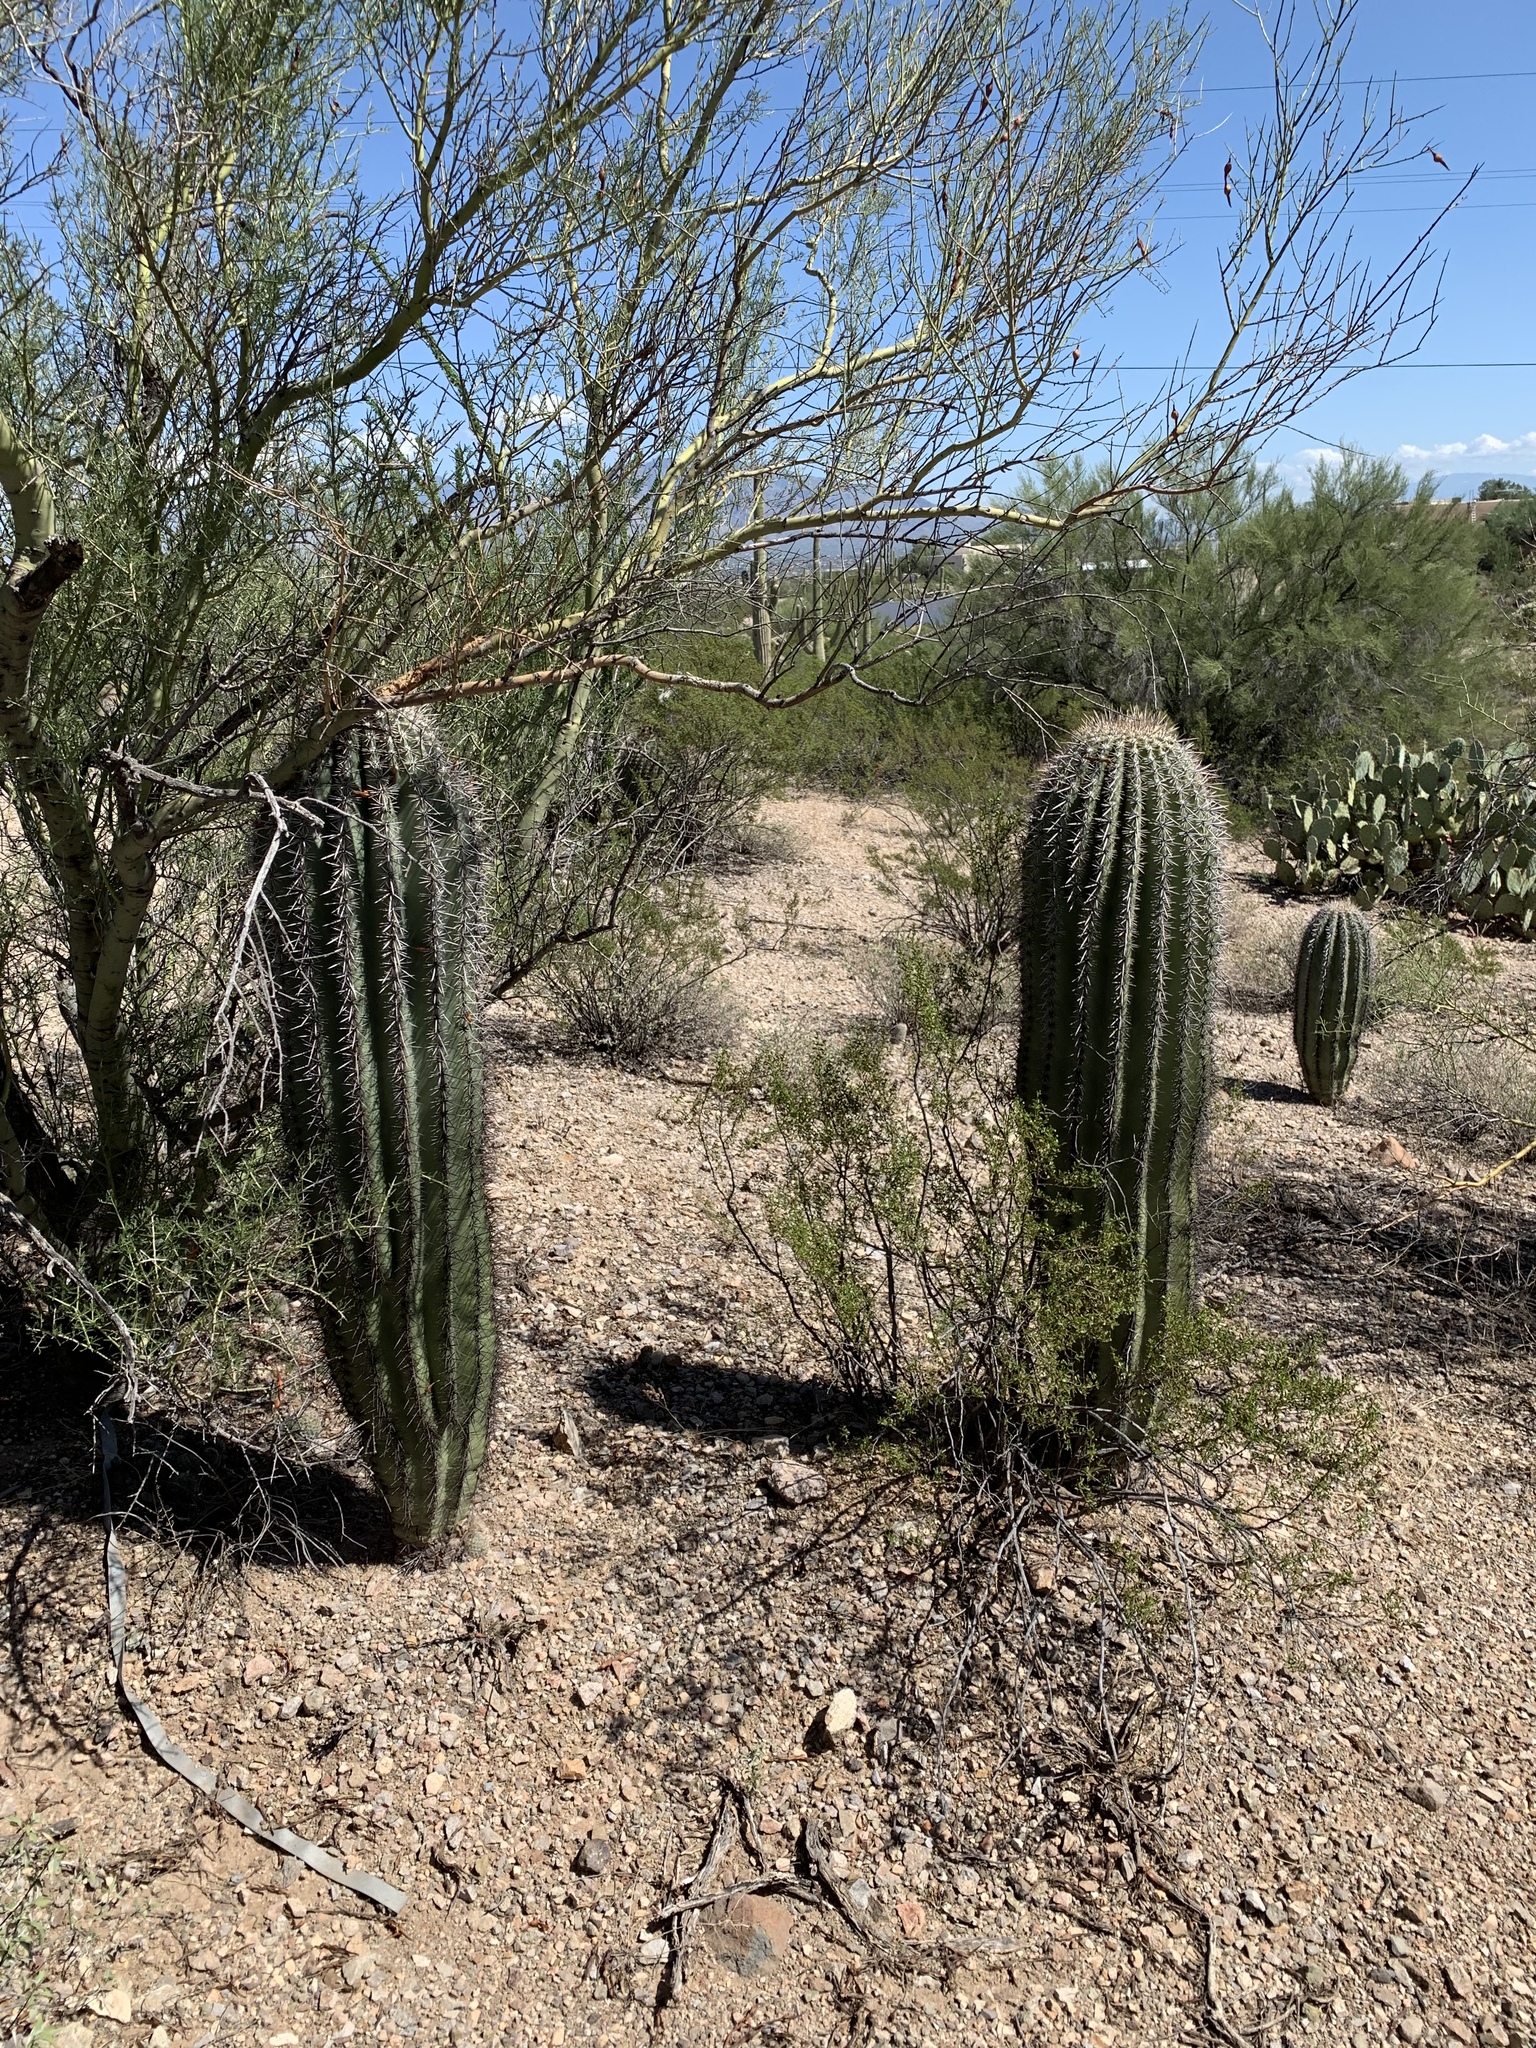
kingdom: Plantae
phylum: Tracheophyta
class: Magnoliopsida
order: Caryophyllales
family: Cactaceae
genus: Carnegiea
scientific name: Carnegiea gigantea
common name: Saguaro
